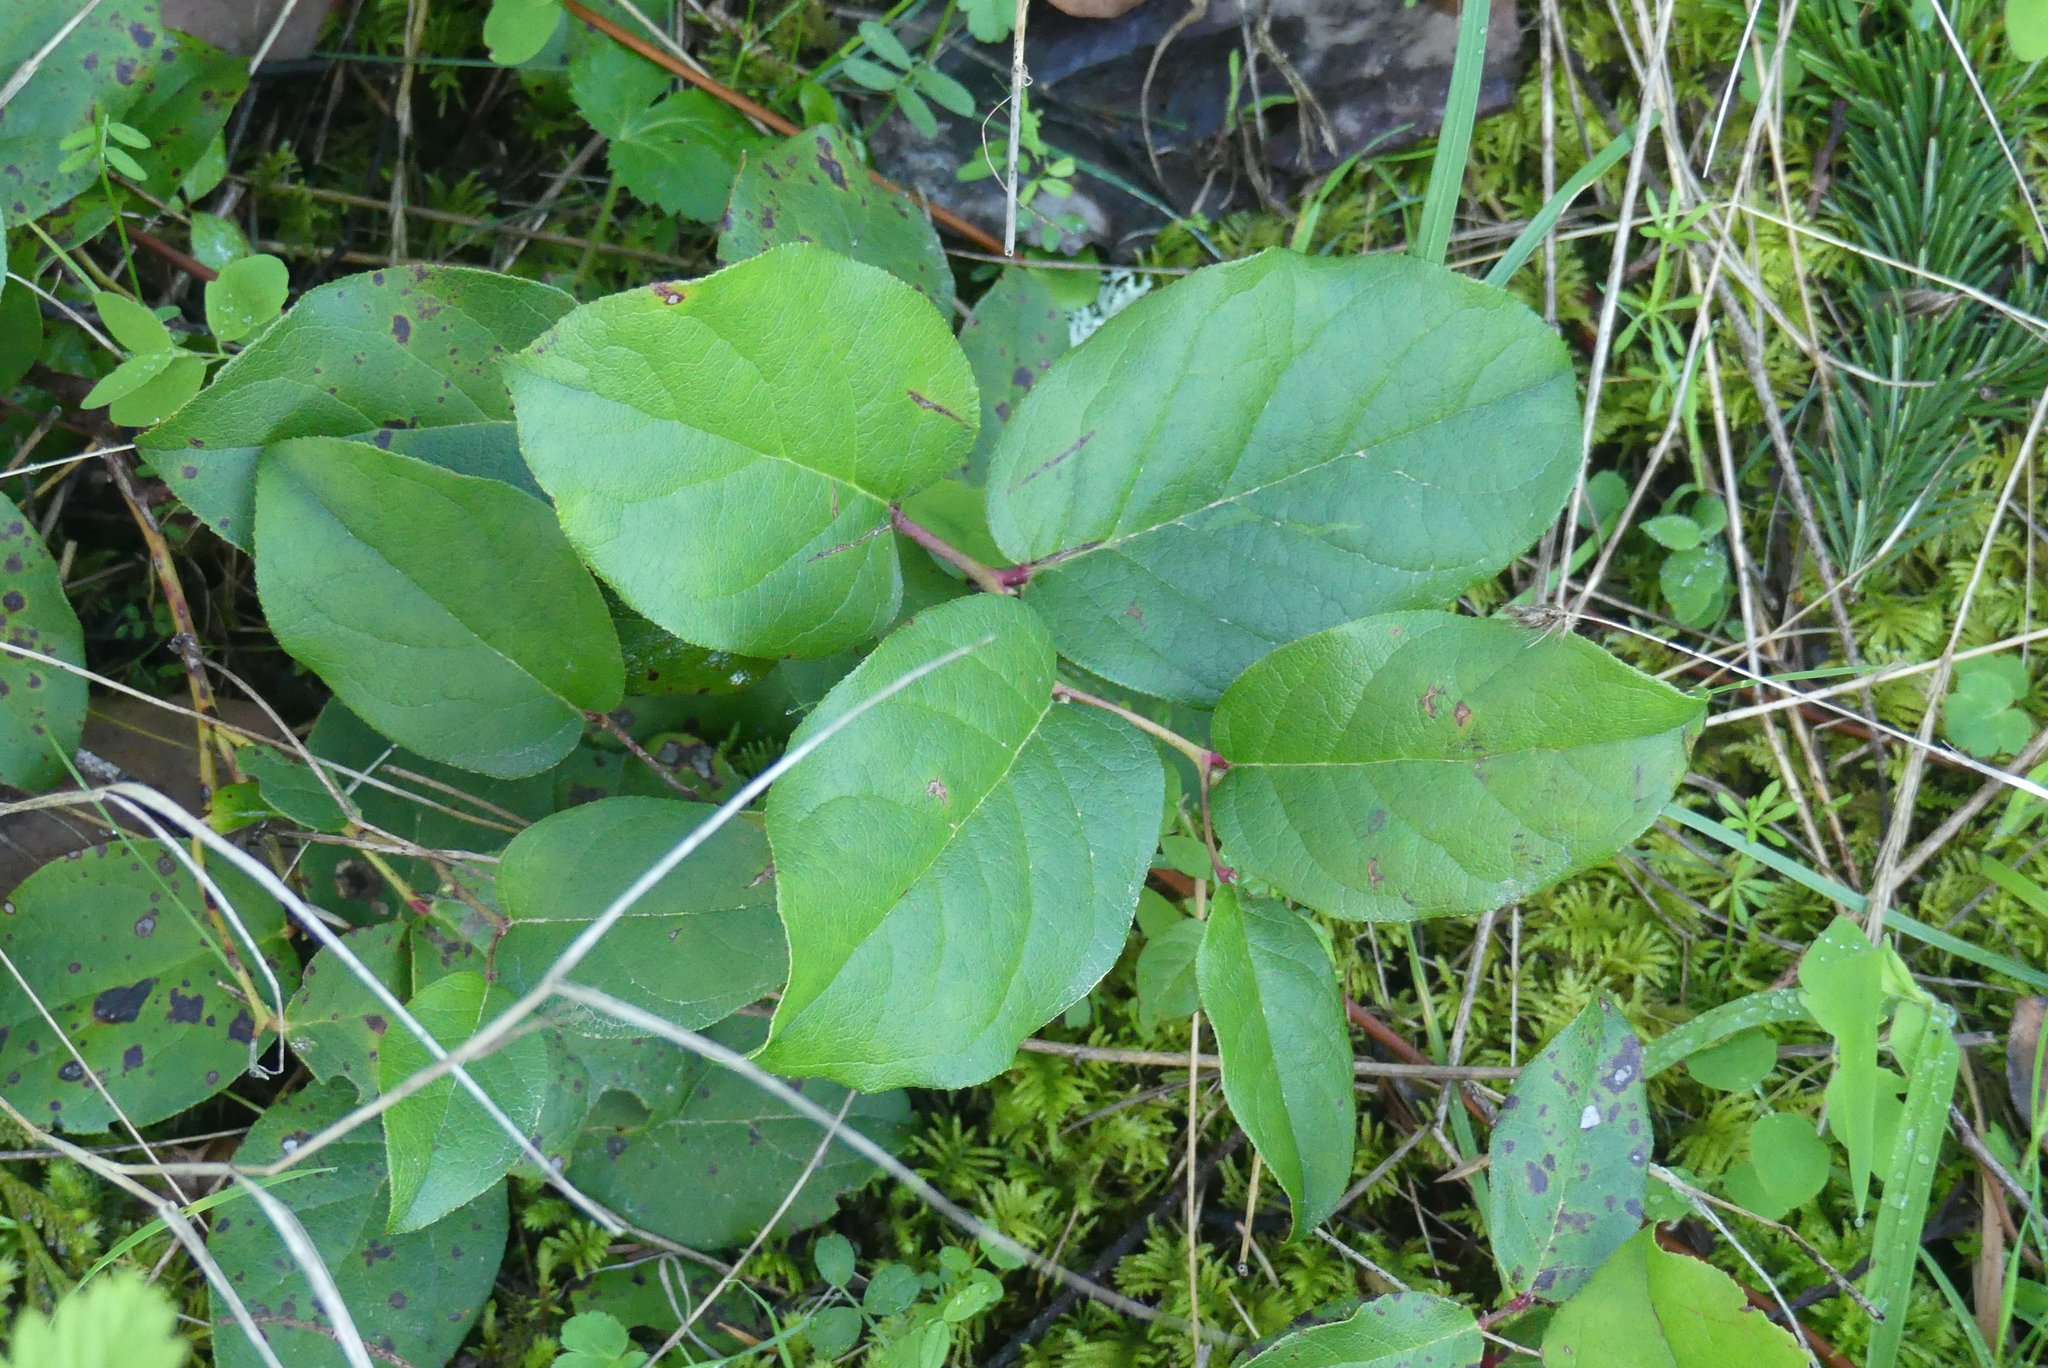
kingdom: Plantae
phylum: Tracheophyta
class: Magnoliopsida
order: Ericales
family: Ericaceae
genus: Gaultheria
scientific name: Gaultheria shallon
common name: Shallon
